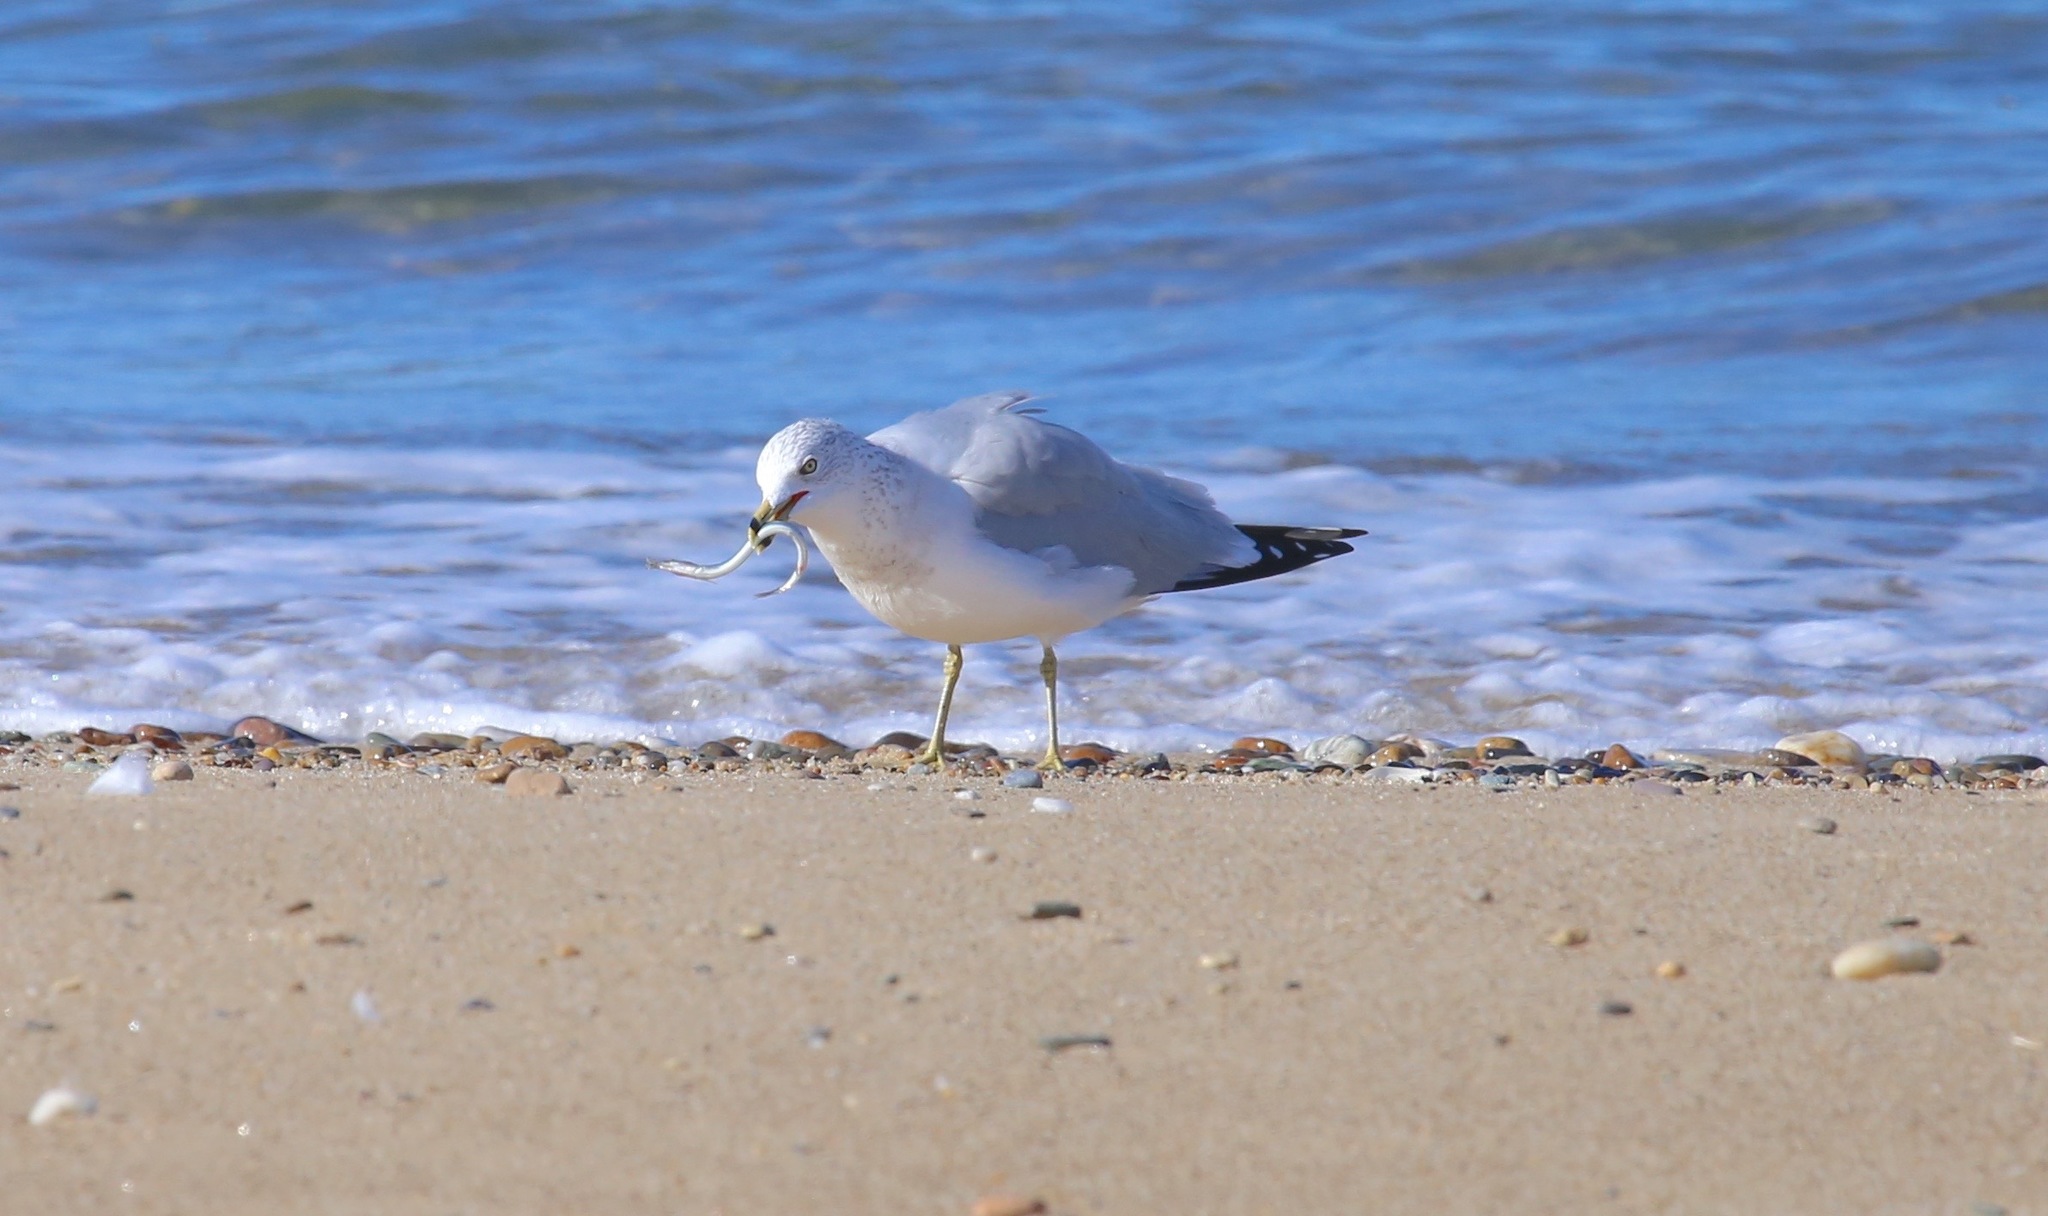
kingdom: Animalia
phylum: Chordata
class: Aves
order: Charadriiformes
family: Laridae
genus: Larus
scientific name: Larus delawarensis
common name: Ring-billed gull
